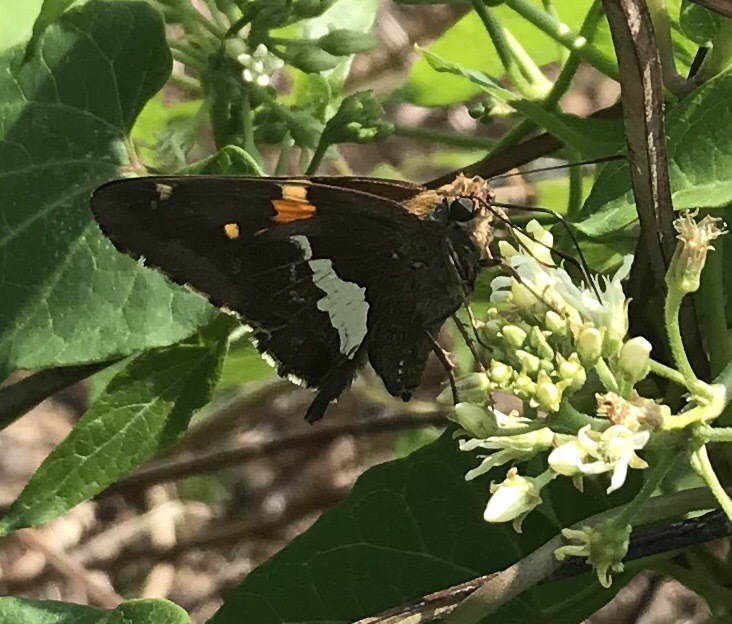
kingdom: Animalia
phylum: Arthropoda
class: Insecta
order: Lepidoptera
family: Hesperiidae
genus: Epargyreus
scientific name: Epargyreus clarus
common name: Silver-spotted skipper
